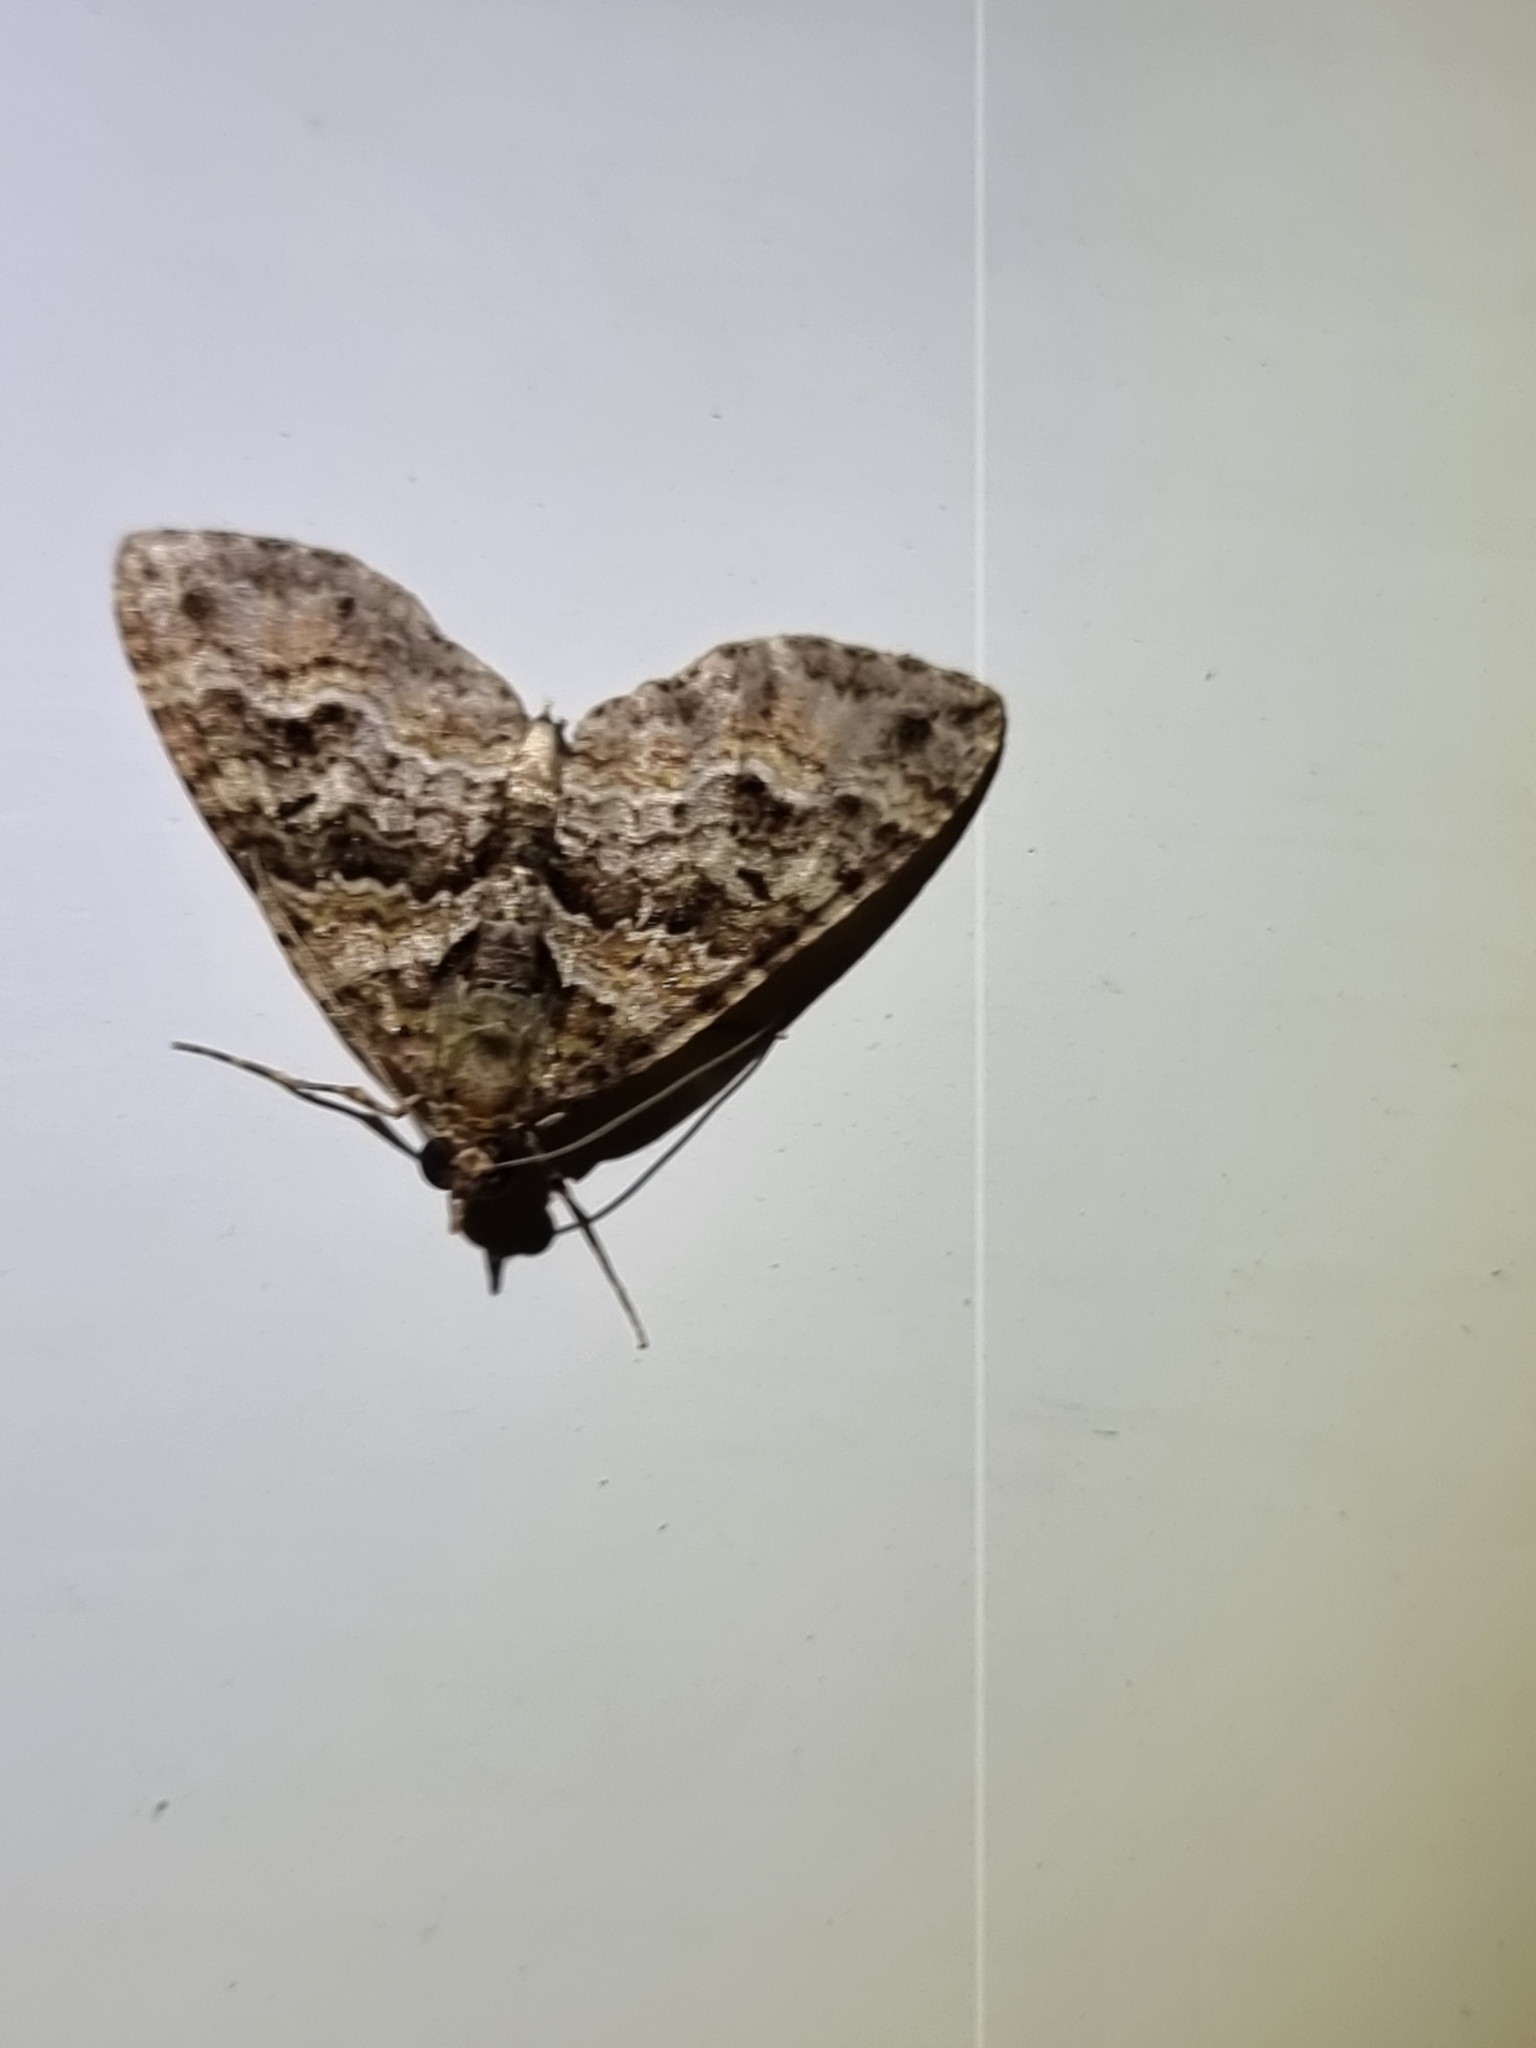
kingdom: Animalia
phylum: Arthropoda
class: Insecta
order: Lepidoptera
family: Geometridae
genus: Crasilogia
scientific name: Crasilogia gressitti
